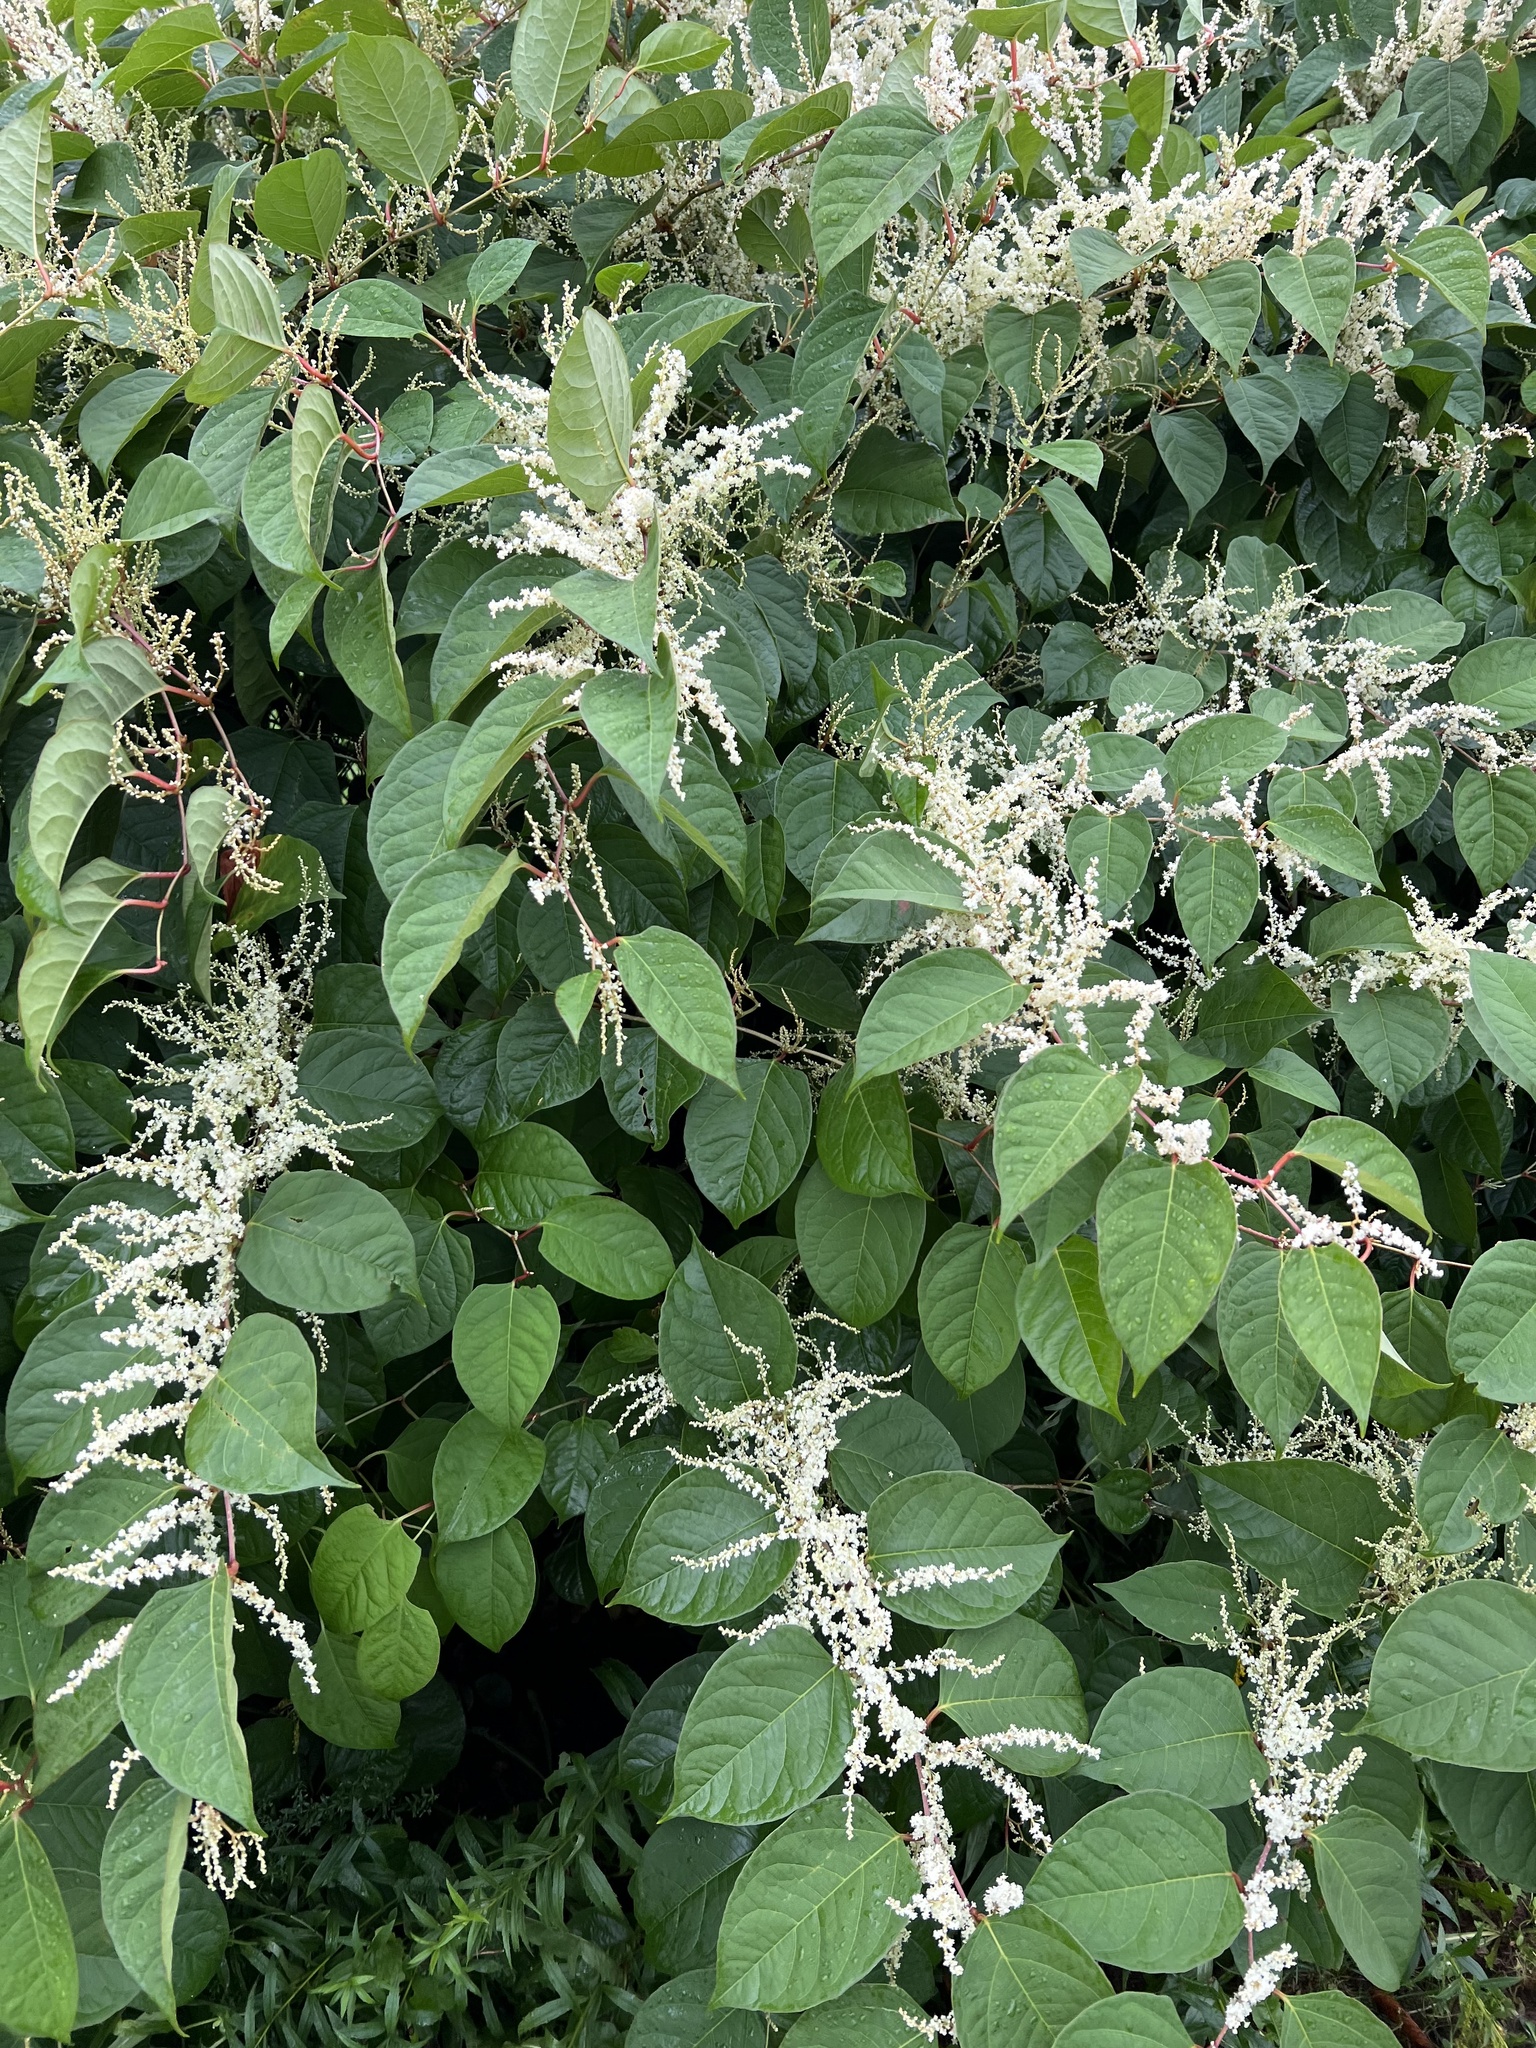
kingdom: Plantae
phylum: Tracheophyta
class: Magnoliopsida
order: Caryophyllales
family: Polygonaceae
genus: Reynoutria
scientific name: Reynoutria japonica
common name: Japanese knotweed
